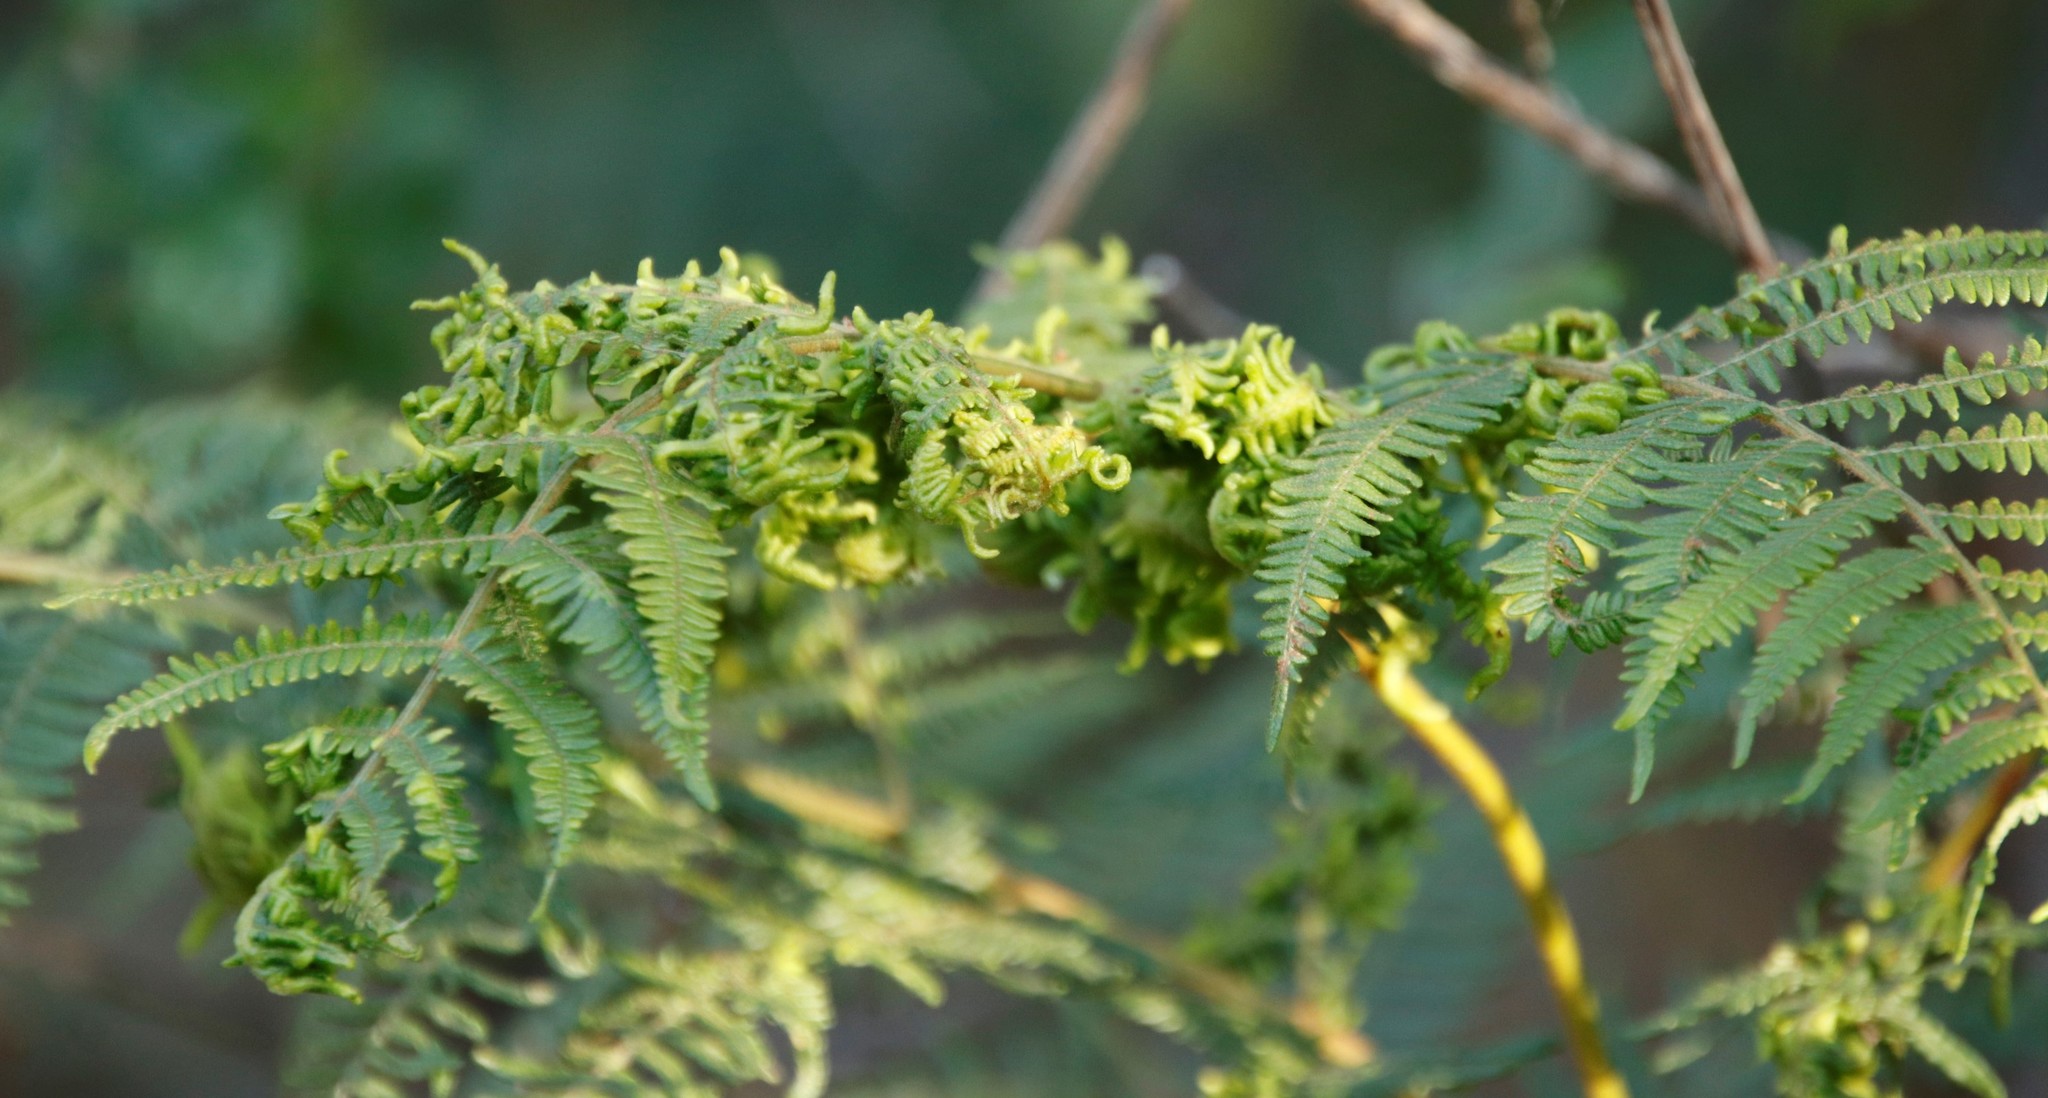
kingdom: Animalia
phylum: Arthropoda
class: Arachnida
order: Trombidiformes
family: Eriophyidae
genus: Eriophyes
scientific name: Eriophyes
